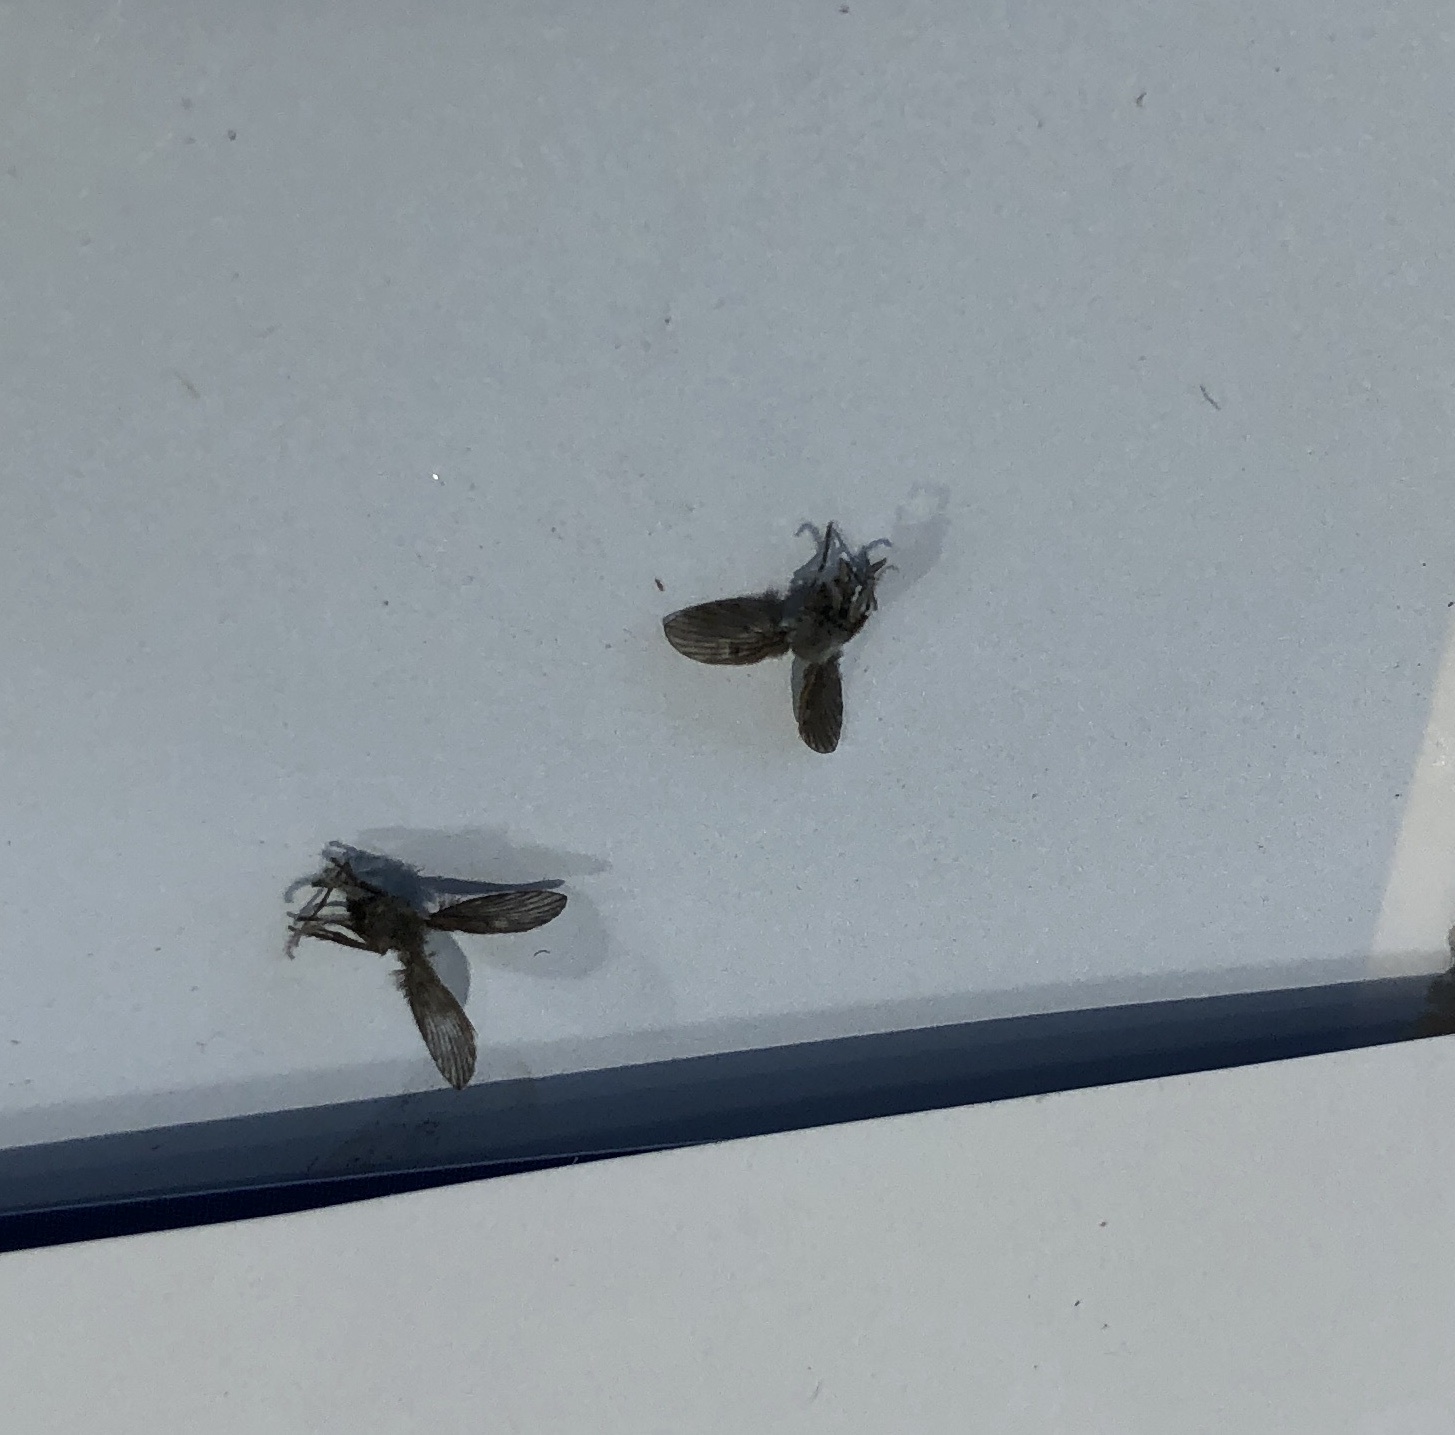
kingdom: Animalia
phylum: Arthropoda
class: Insecta
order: Diptera
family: Psychodidae
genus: Clogmia
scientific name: Clogmia albipunctatus
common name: White-spotted moth fly
